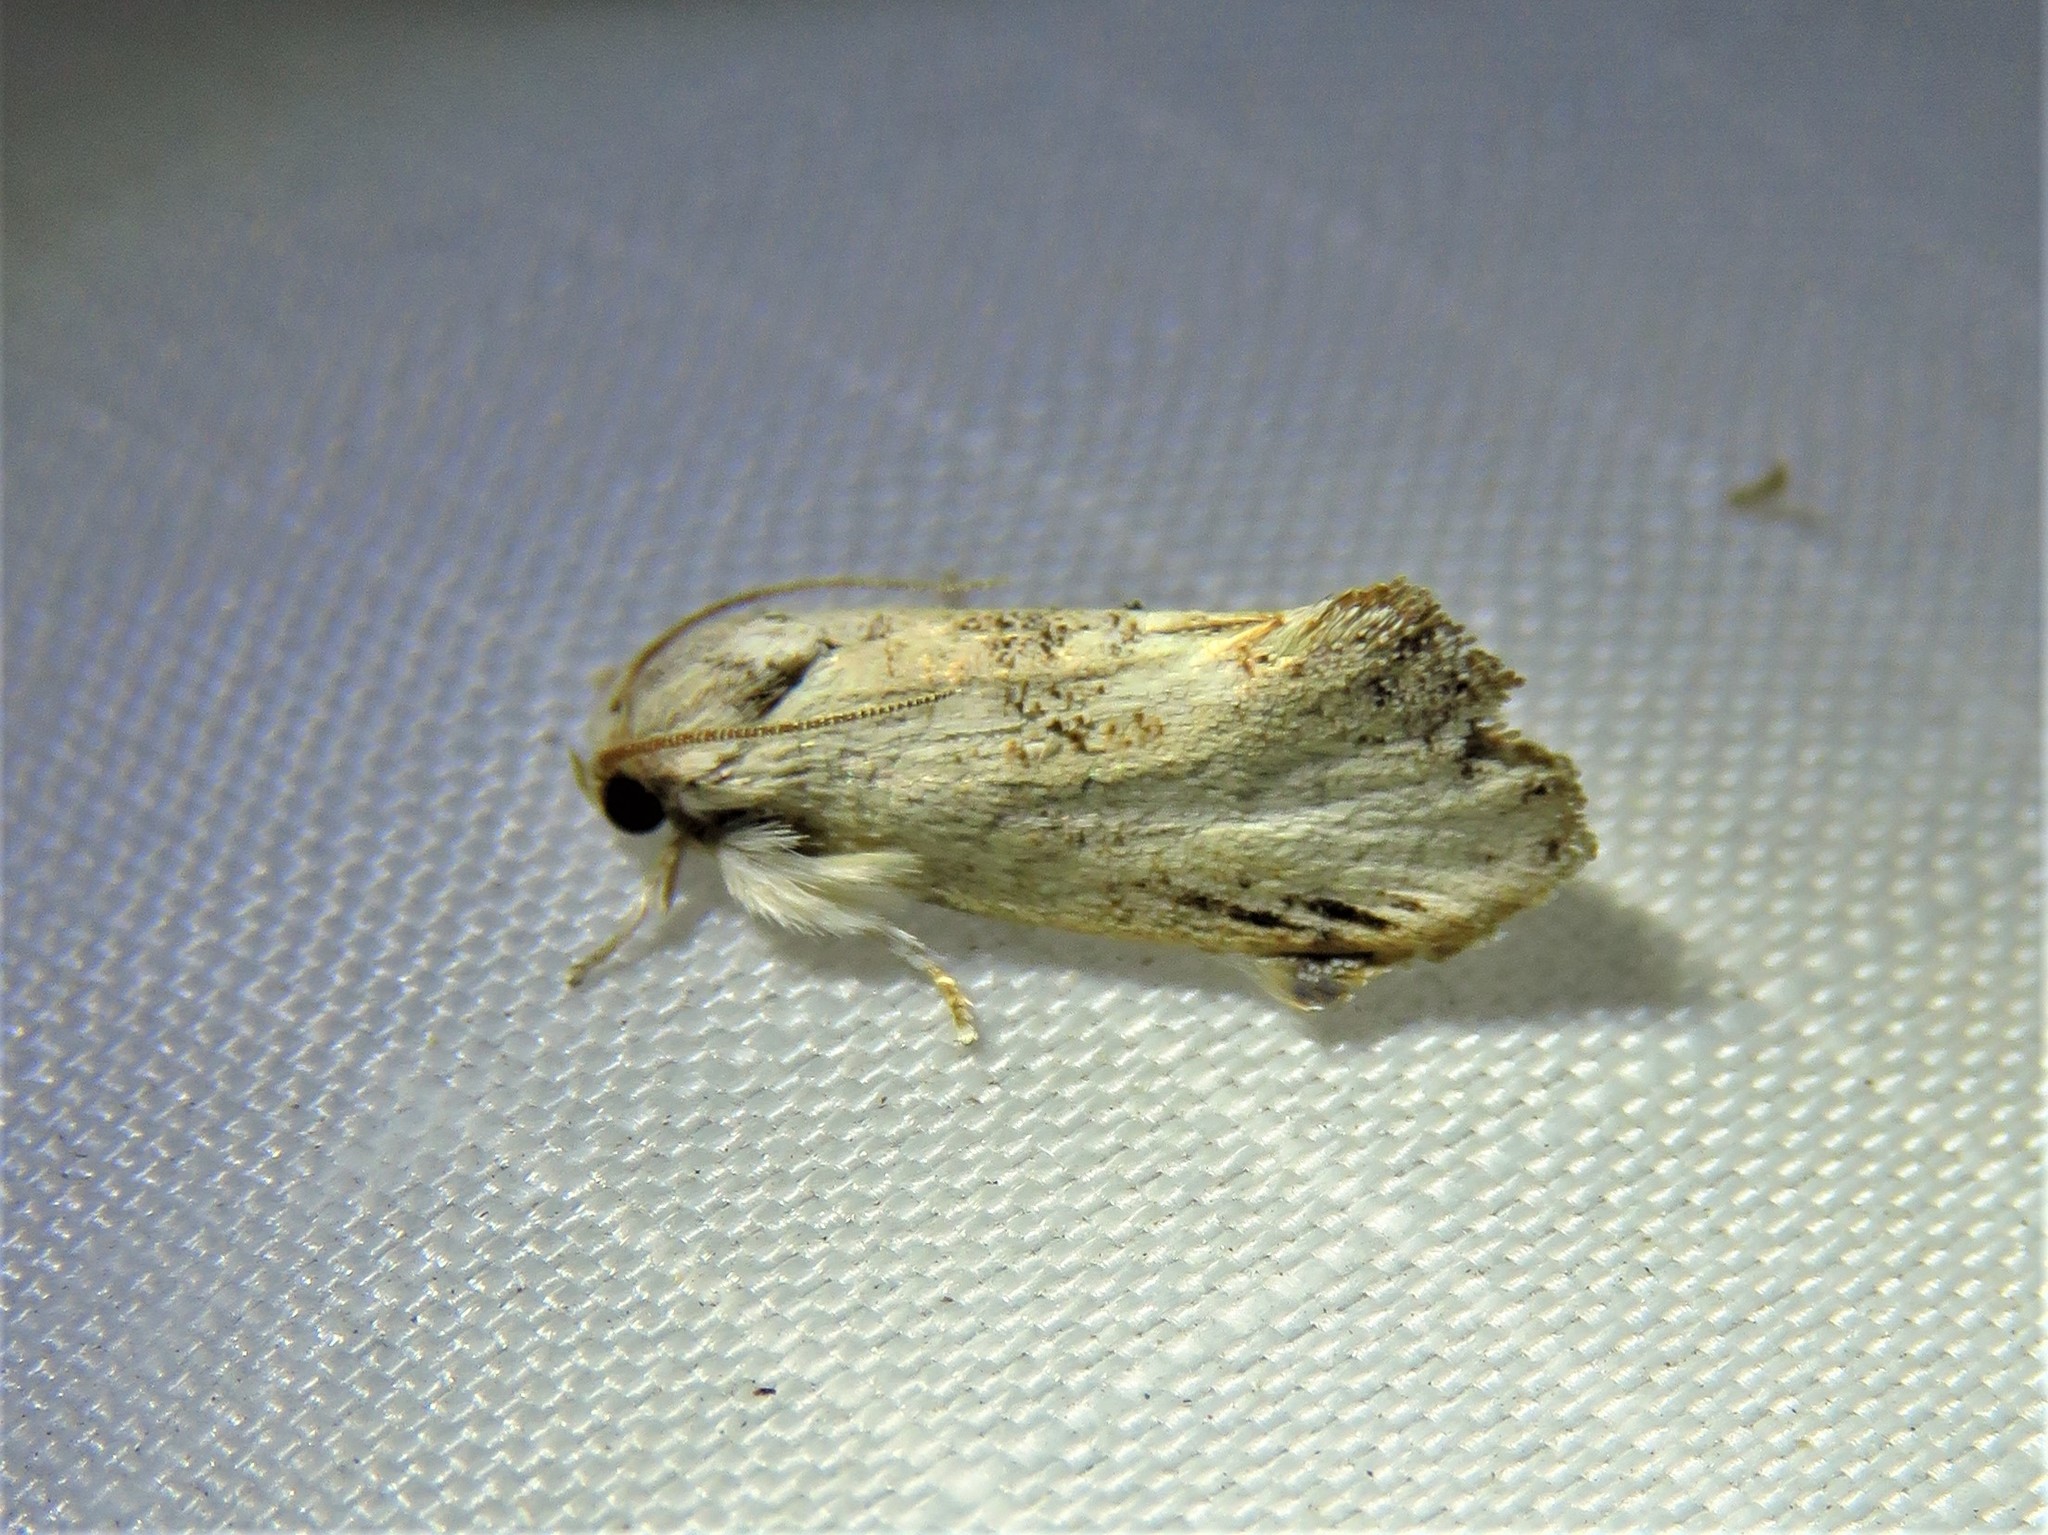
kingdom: Animalia
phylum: Arthropoda
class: Insecta
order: Lepidoptera
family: Tineidae
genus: Acrolophus
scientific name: Acrolophus mycetophagus
